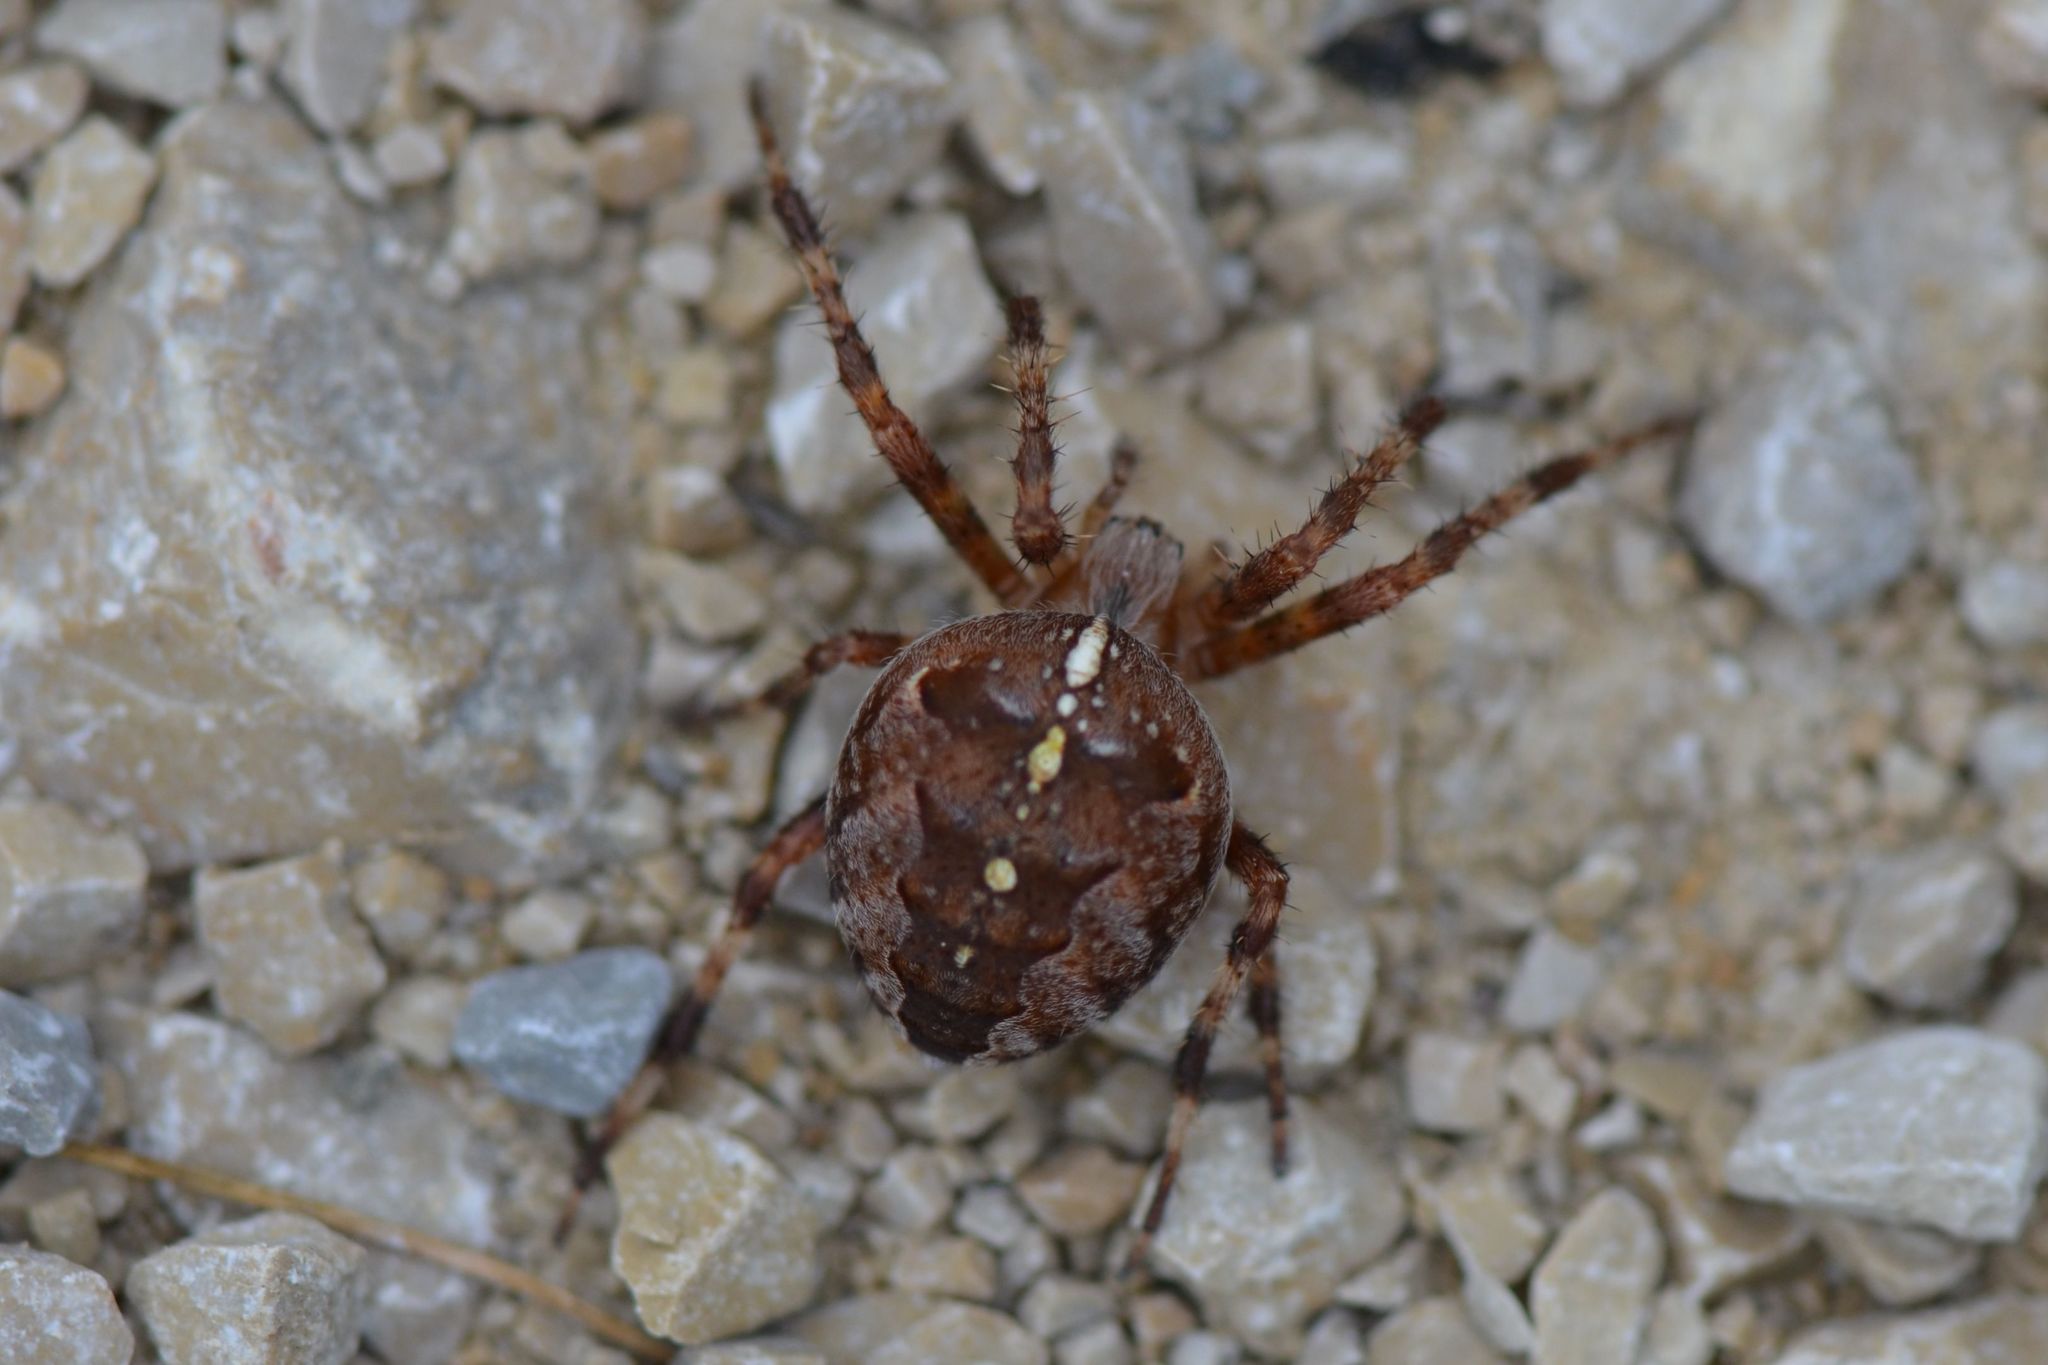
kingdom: Animalia
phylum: Arthropoda
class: Arachnida
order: Araneae
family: Araneidae
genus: Araneus
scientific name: Araneus diadematus
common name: Cross orbweaver
